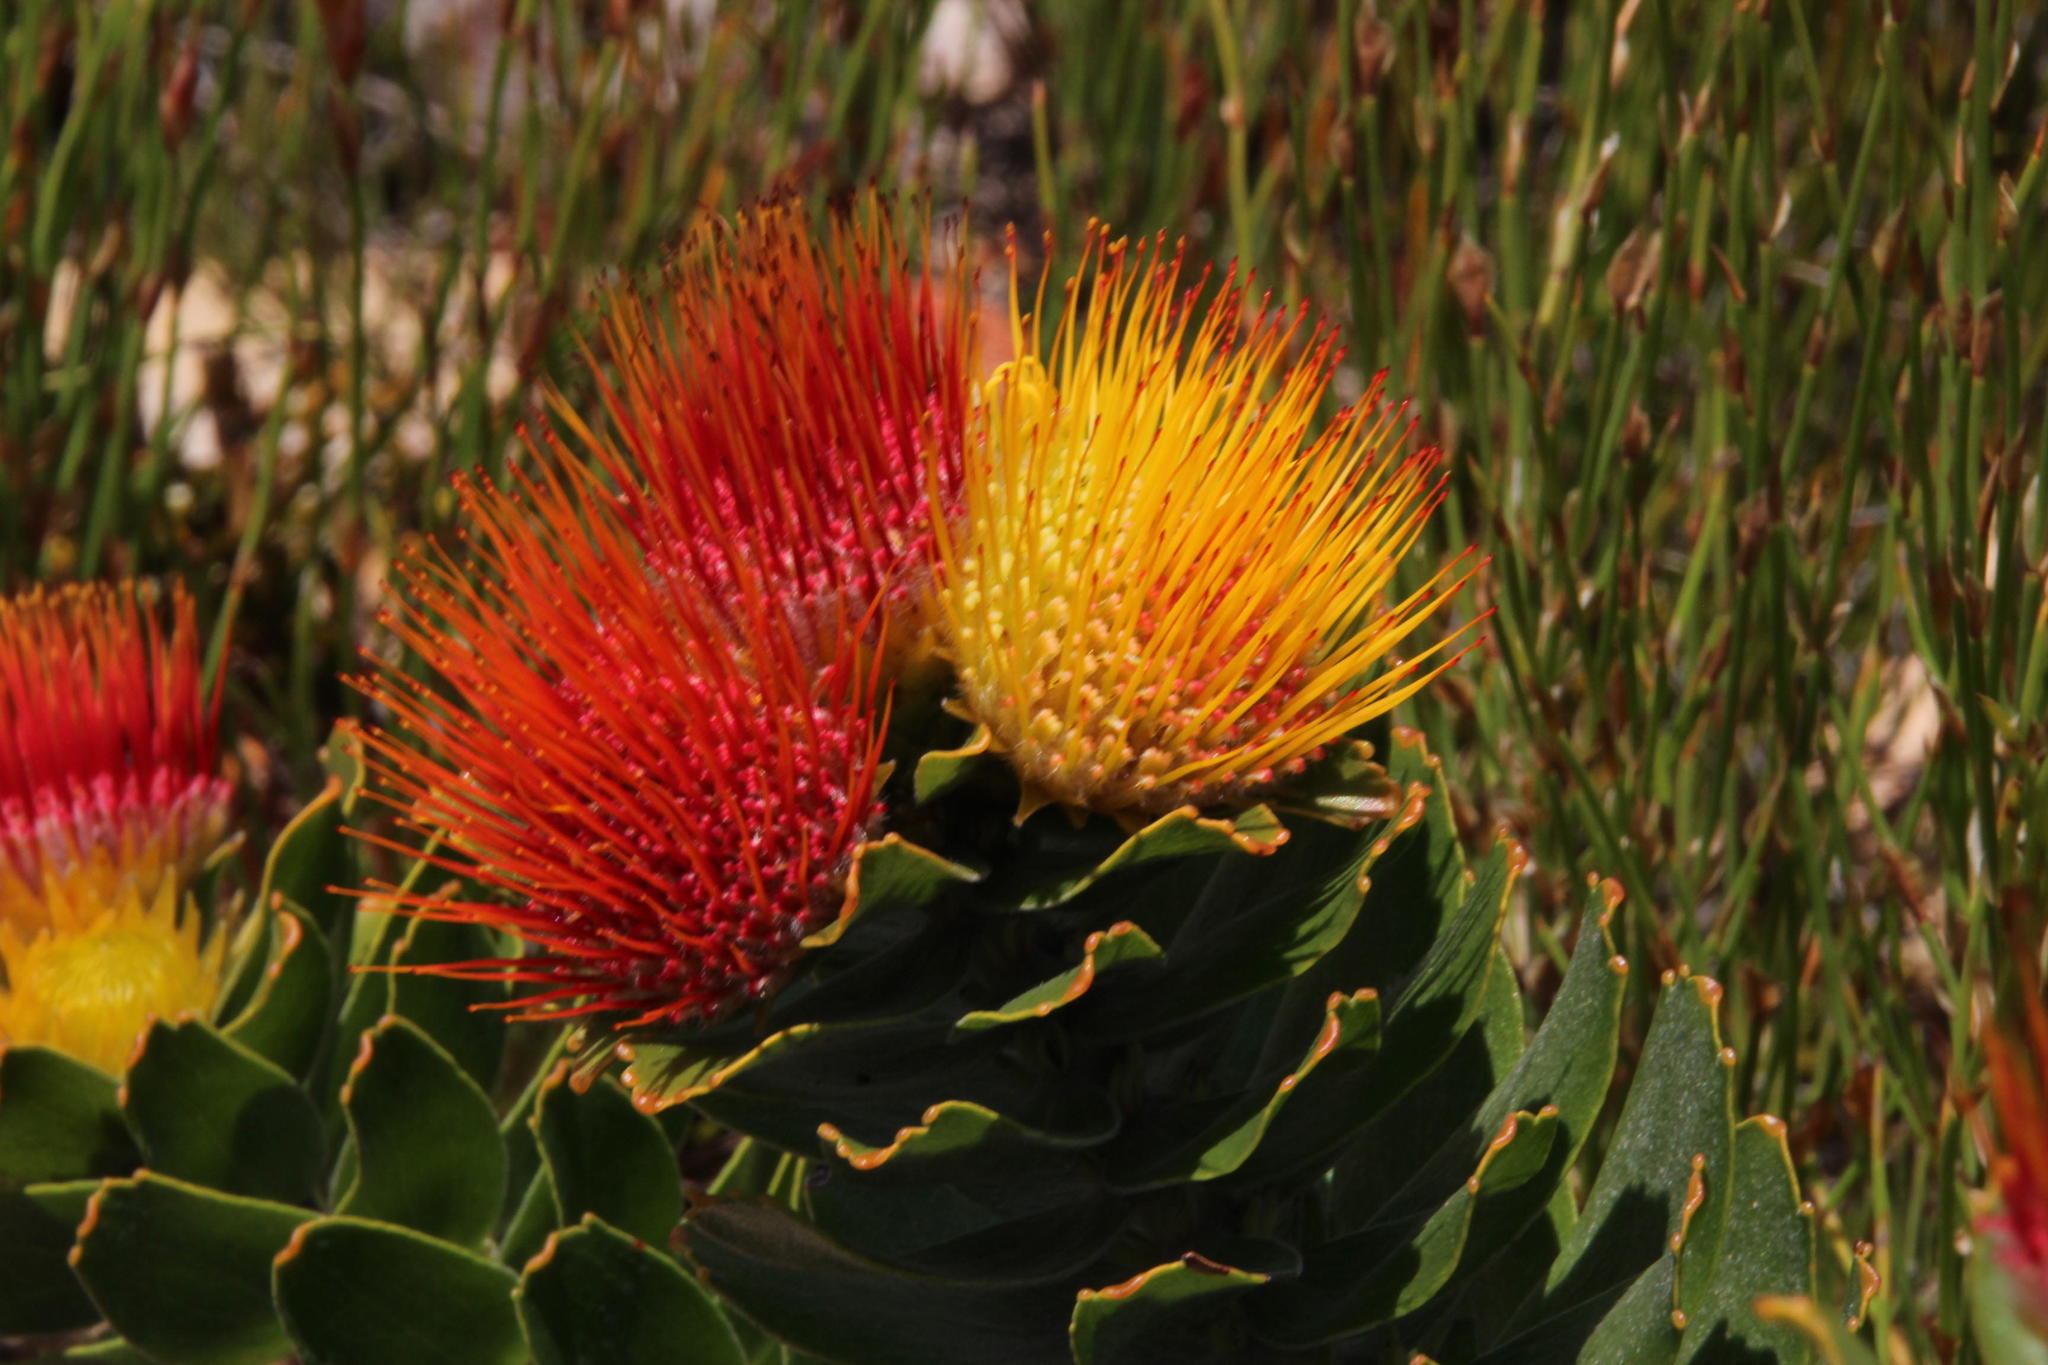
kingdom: Plantae
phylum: Tracheophyta
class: Magnoliopsida
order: Proteales
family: Proteaceae
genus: Leucospermum
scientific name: Leucospermum oleifolium
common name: Matches
